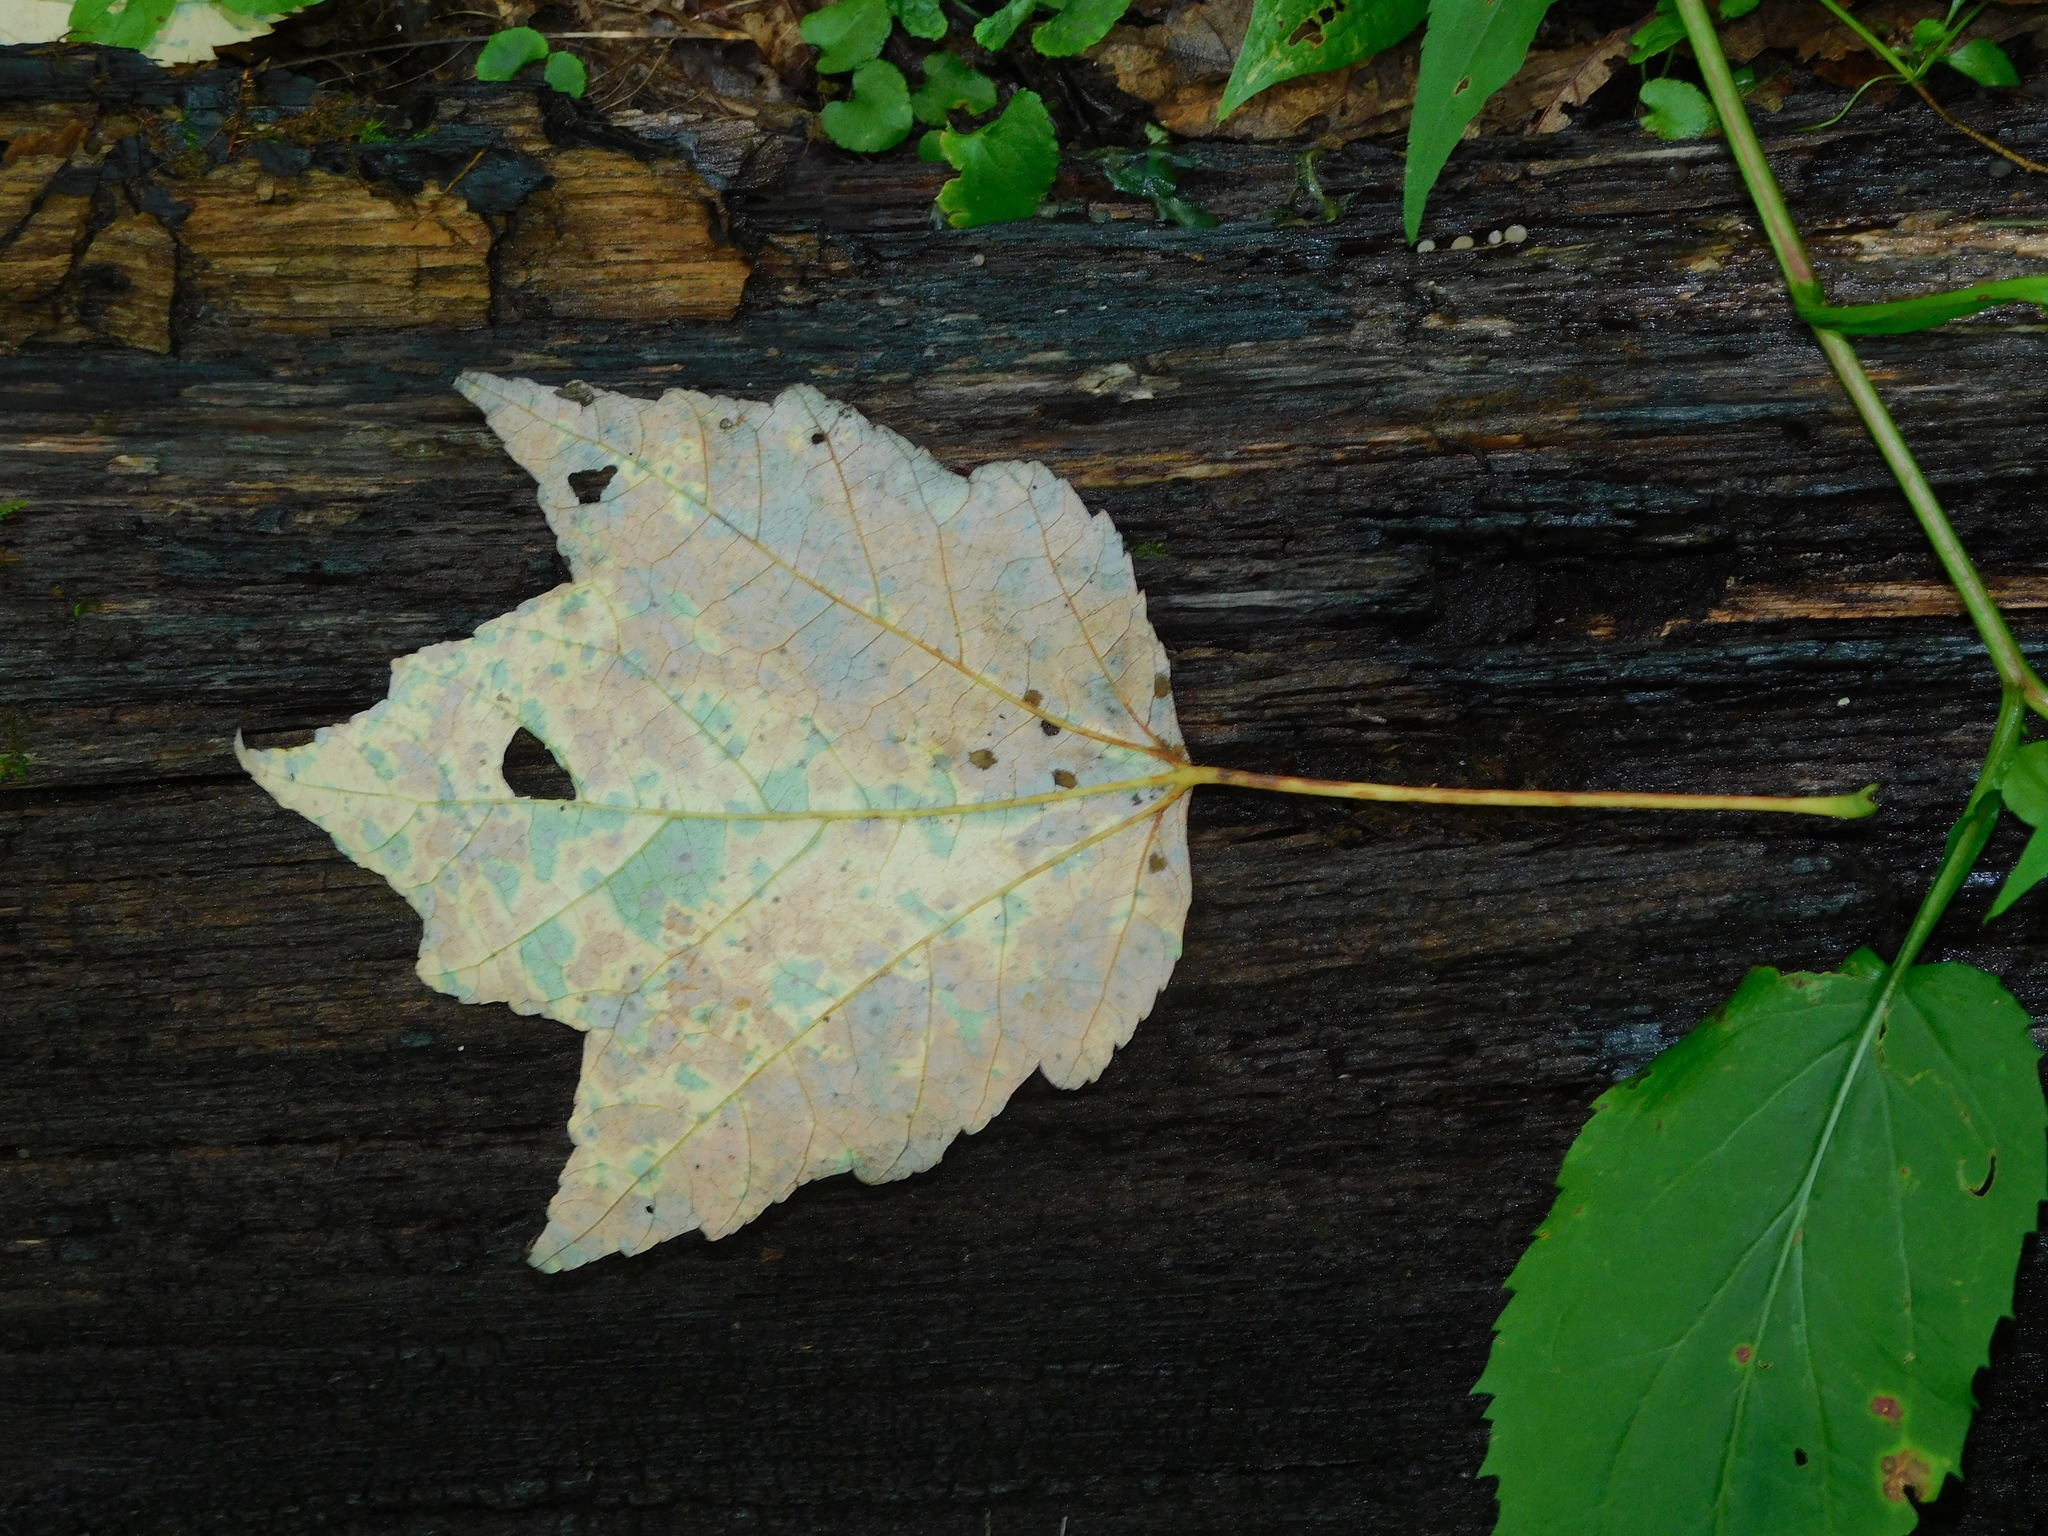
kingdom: Plantae
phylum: Tracheophyta
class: Magnoliopsida
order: Sapindales
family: Sapindaceae
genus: Acer
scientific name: Acer rubrum
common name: Red maple
